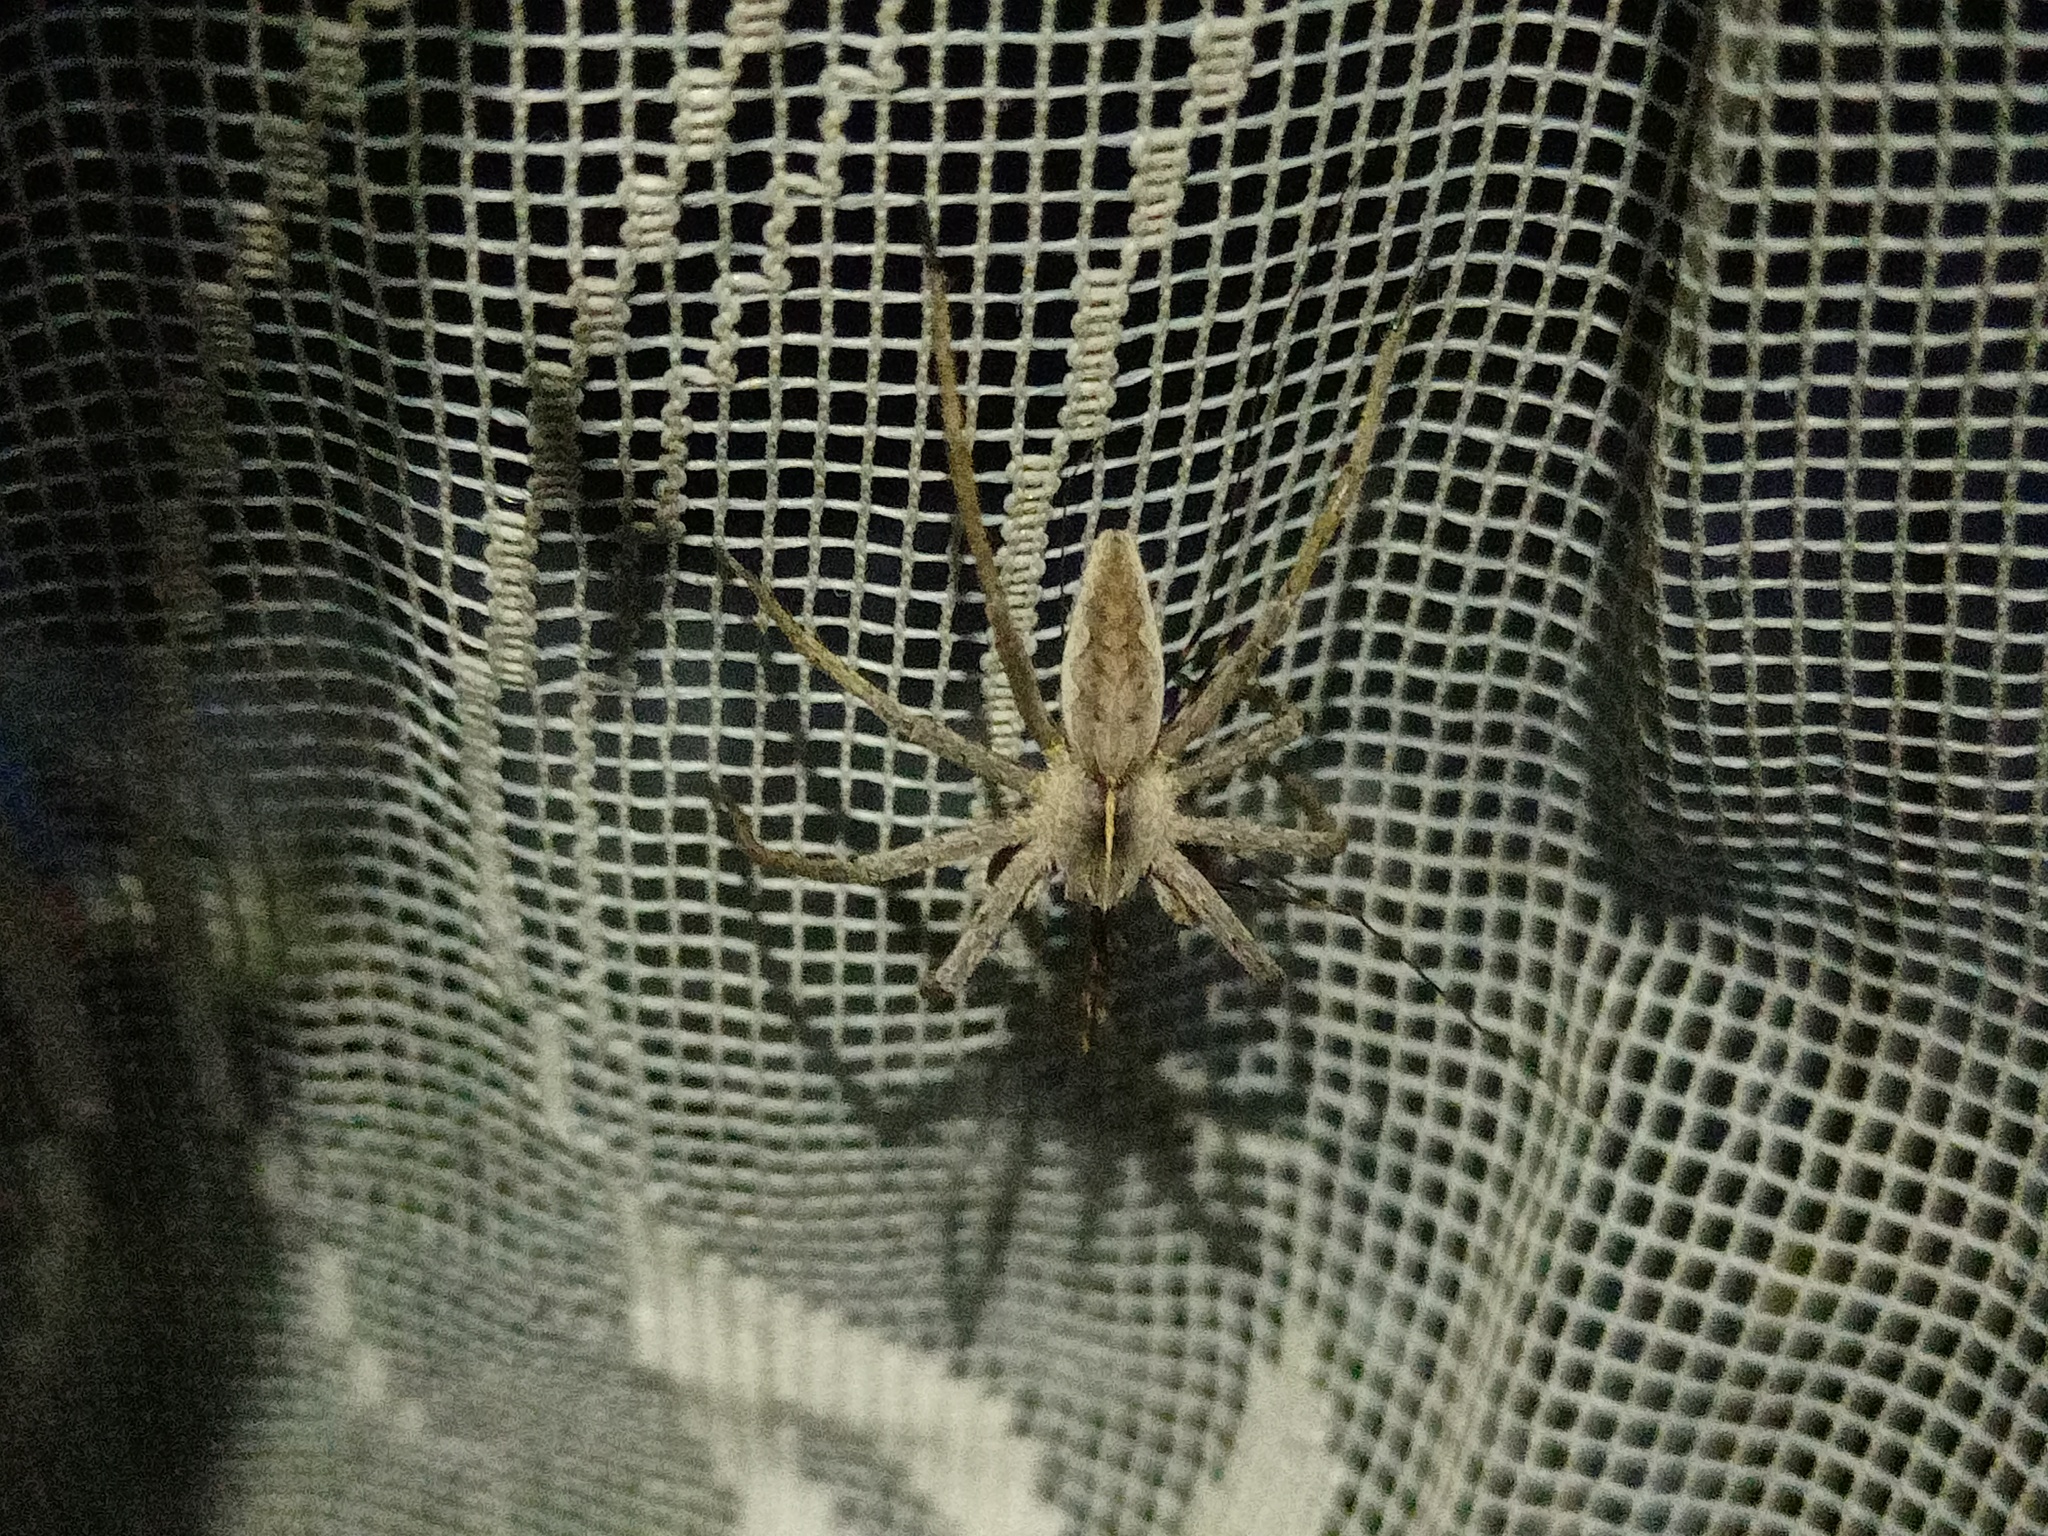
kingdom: Animalia
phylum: Arthropoda
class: Arachnida
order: Araneae
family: Pisauridae
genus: Pisaura
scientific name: Pisaura mirabilis
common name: Tent spider
